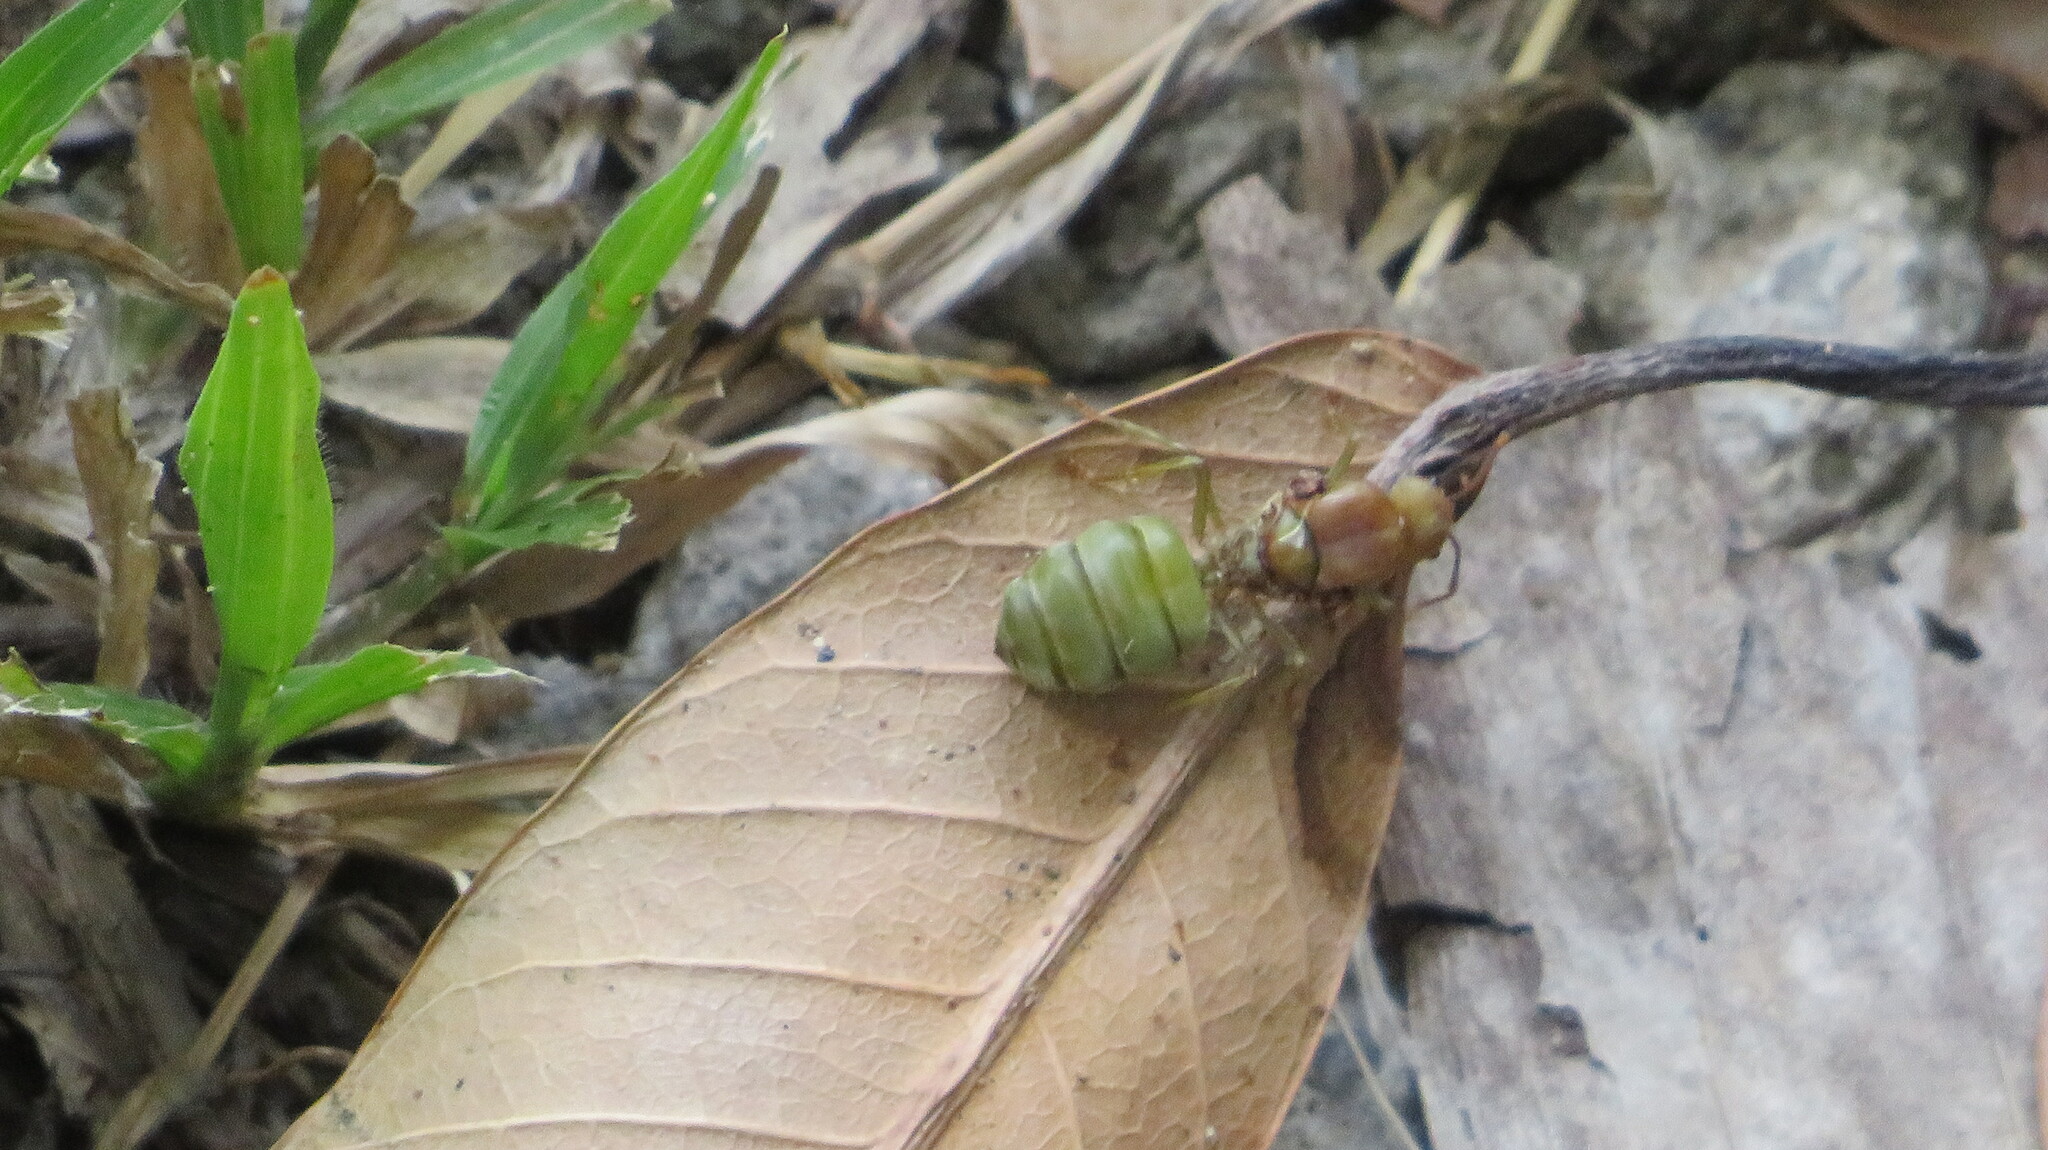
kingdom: Animalia
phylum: Arthropoda
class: Insecta
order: Hymenoptera
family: Formicidae
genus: Oecophylla
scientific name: Oecophylla smaragdina
